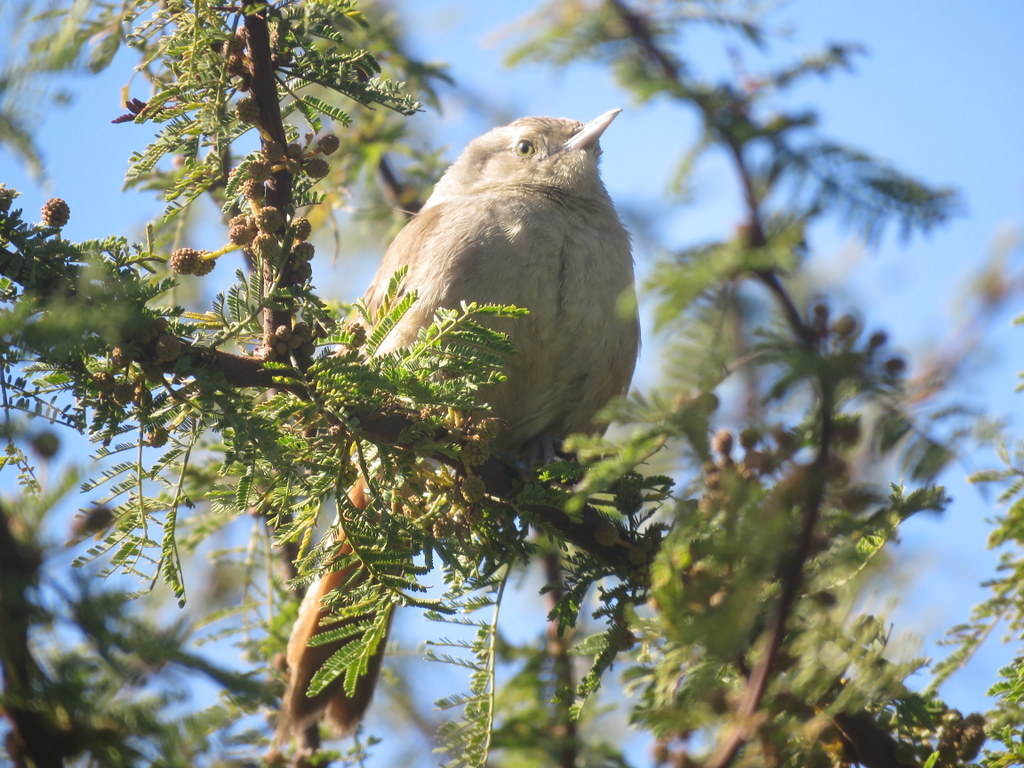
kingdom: Animalia
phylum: Chordata
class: Aves
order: Passeriformes
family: Furnariidae
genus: Phacellodomus
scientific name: Phacellodomus sibilatrix
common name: Little thornbird
